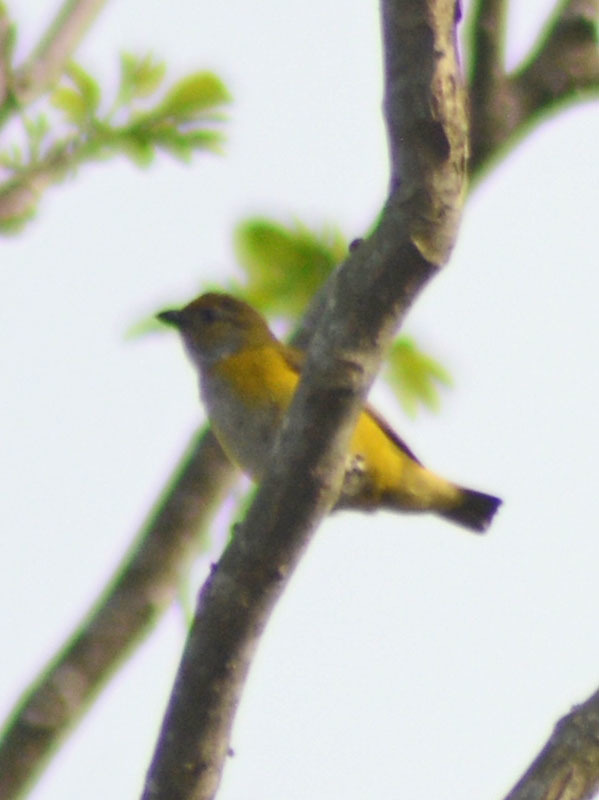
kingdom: Animalia
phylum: Chordata
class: Aves
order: Passeriformes
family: Fringillidae
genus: Euphonia
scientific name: Euphonia hirundinacea
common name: Yellow-throated euphonia
